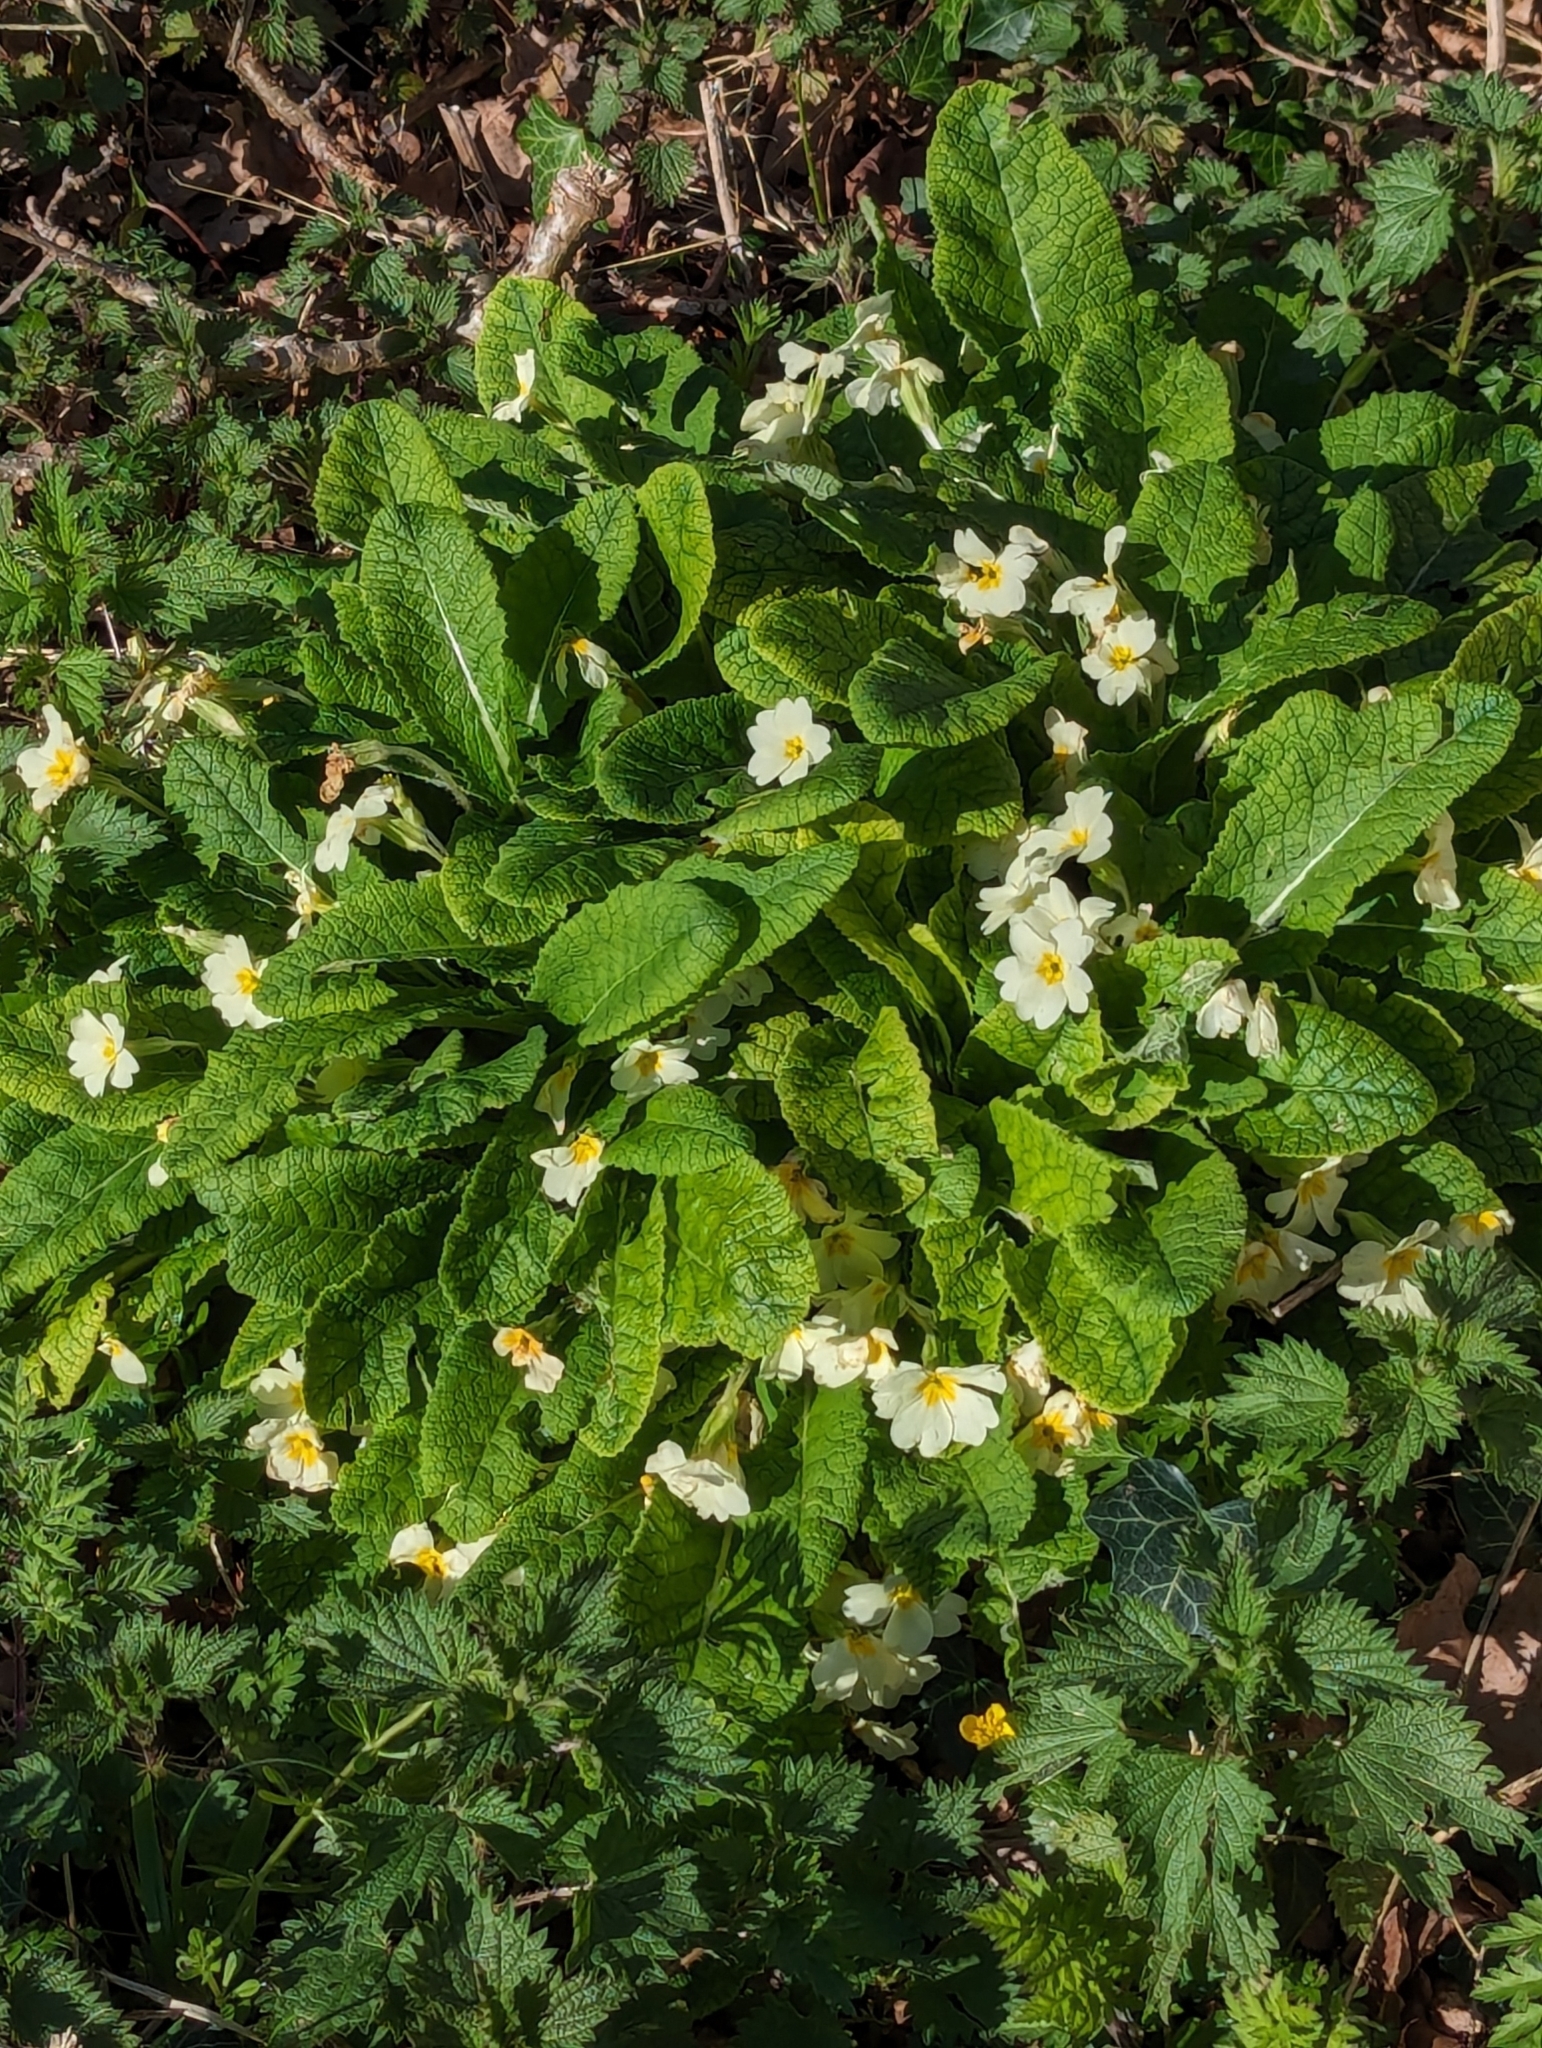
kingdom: Plantae
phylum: Tracheophyta
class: Magnoliopsida
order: Ericales
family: Primulaceae
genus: Primula
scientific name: Primula vulgaris
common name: Primrose
